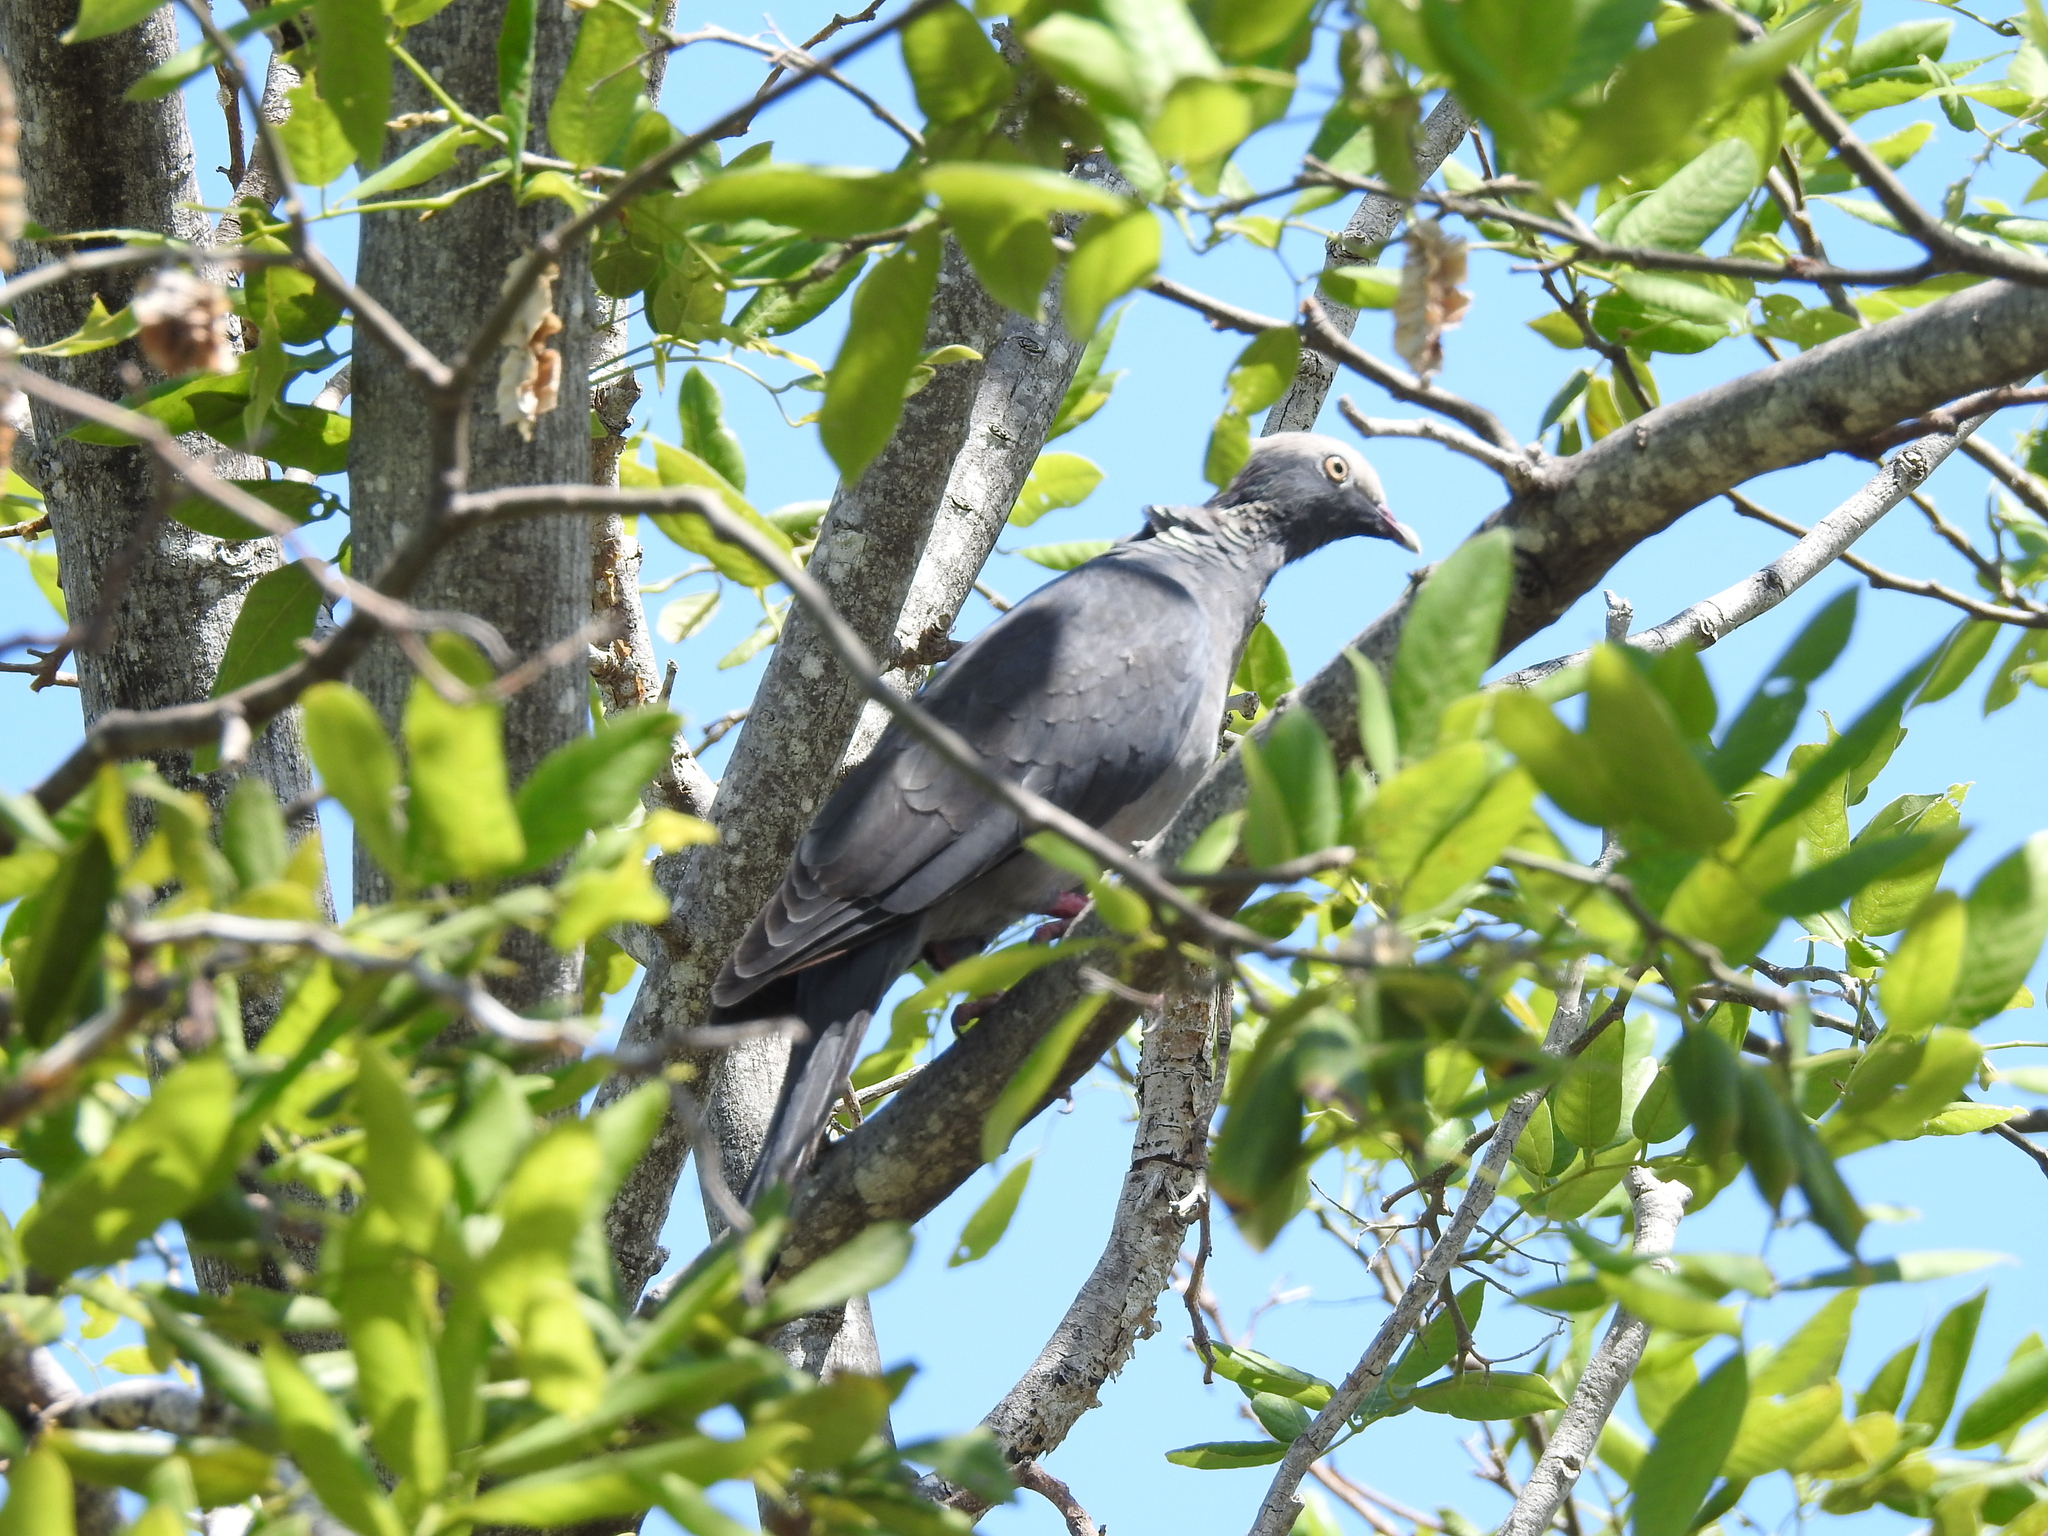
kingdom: Animalia
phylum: Chordata
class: Aves
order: Columbiformes
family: Columbidae
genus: Patagioenas
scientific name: Patagioenas leucocephala
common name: White-crowned pigeon
